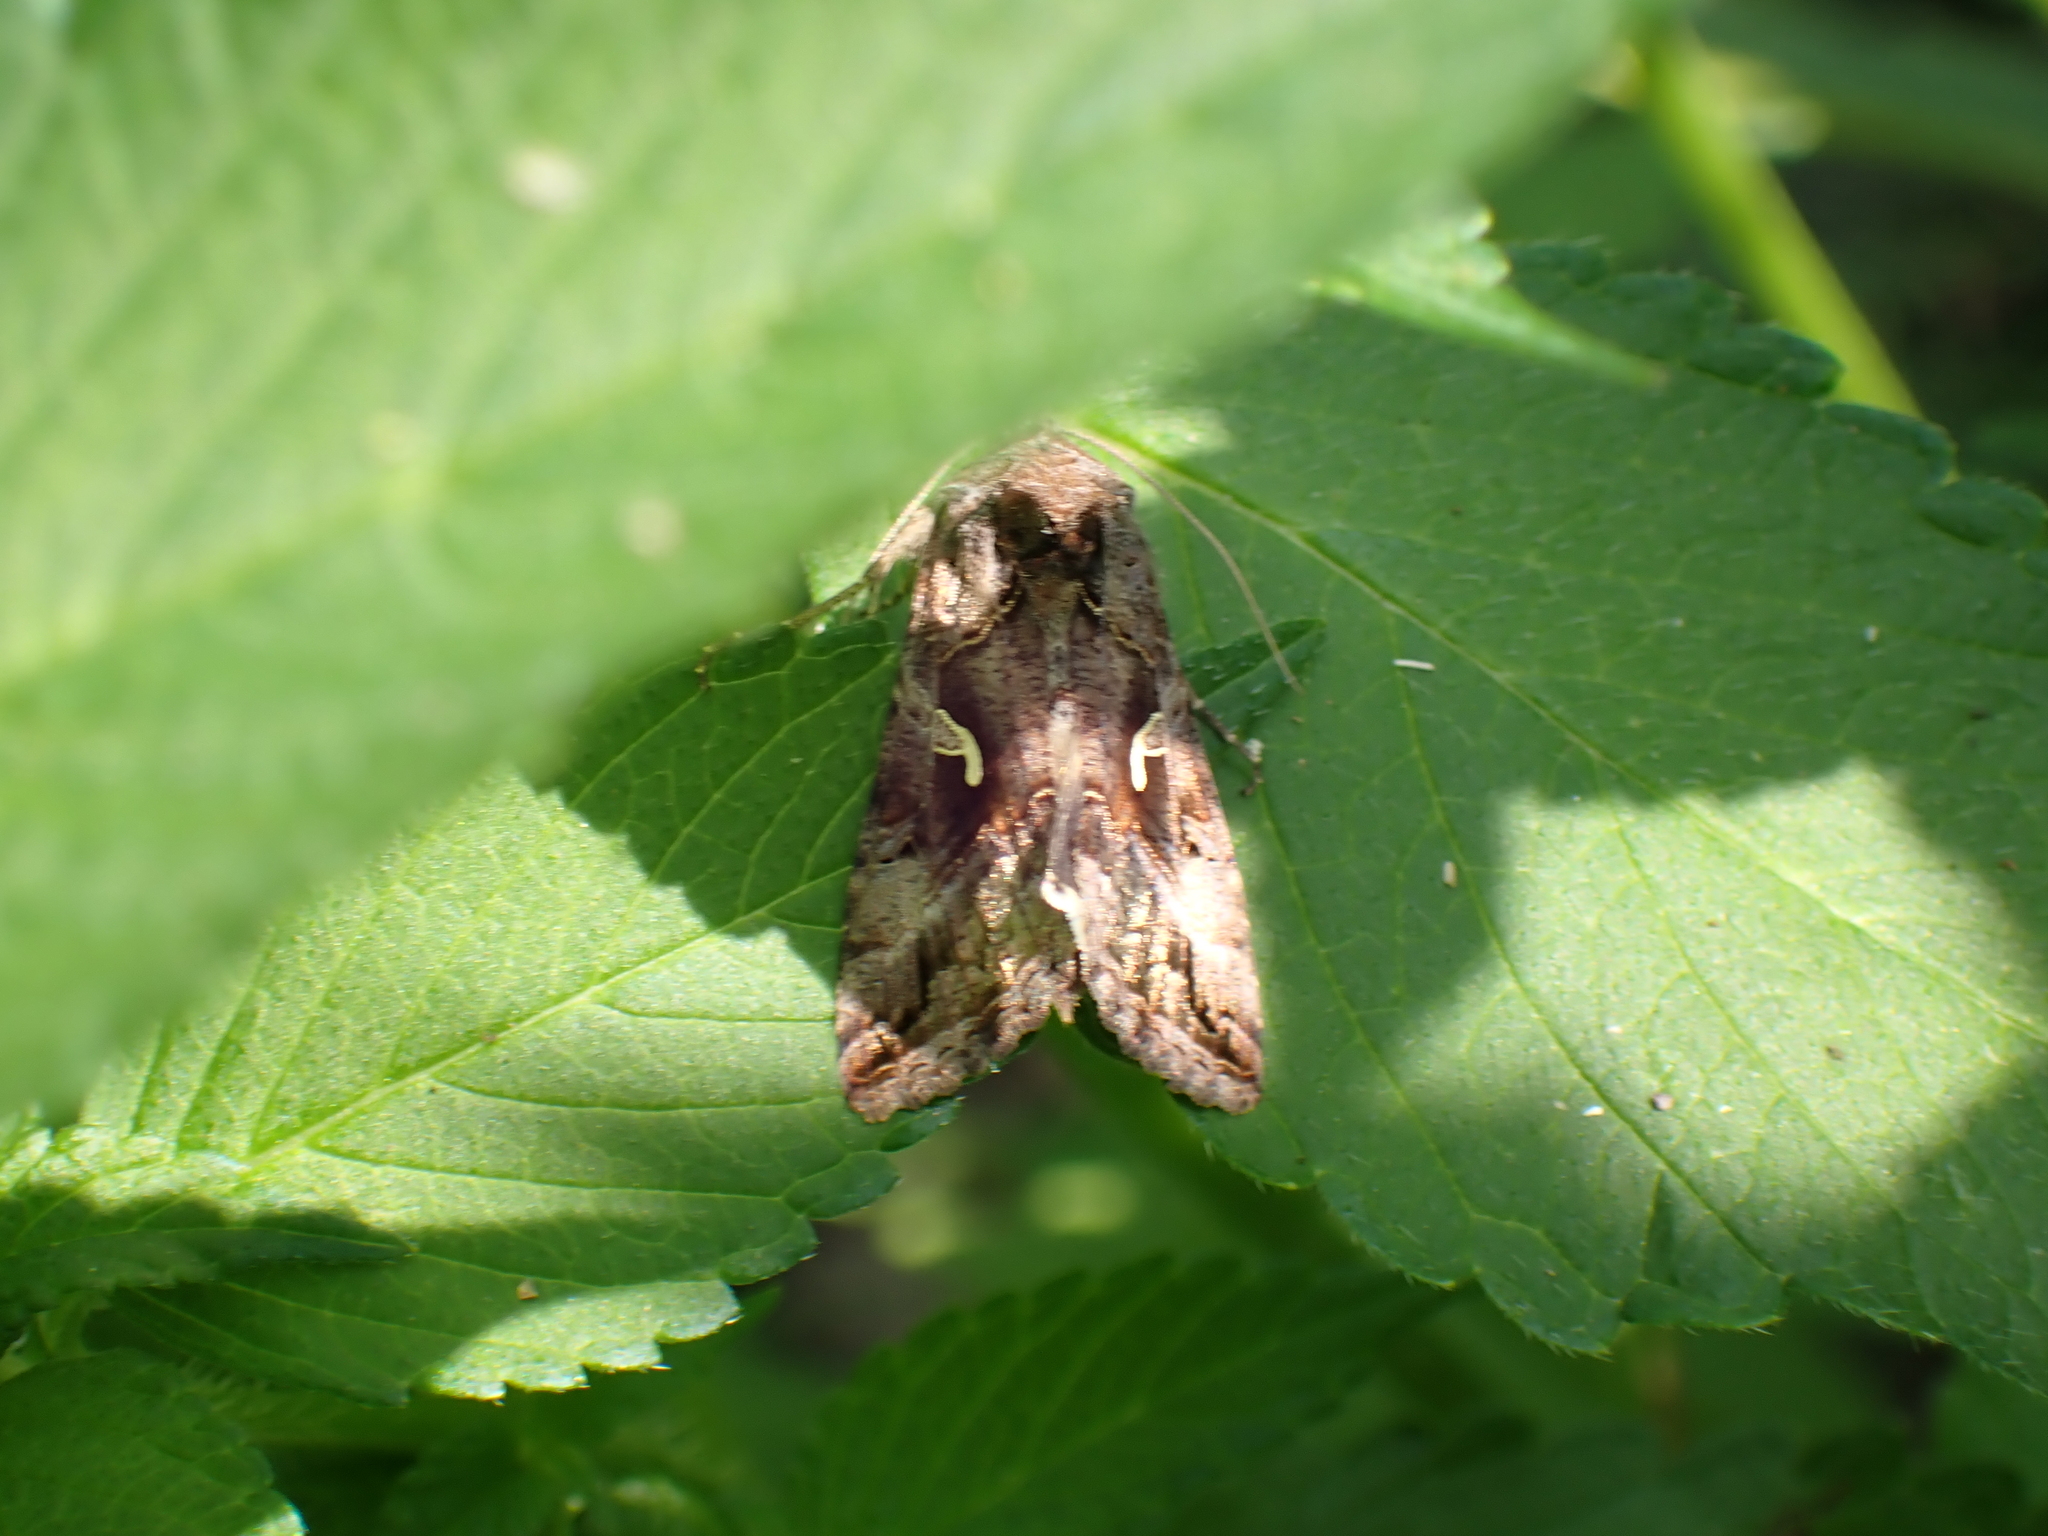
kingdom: Animalia
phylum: Arthropoda
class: Insecta
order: Lepidoptera
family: Noctuidae
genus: Autographa
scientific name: Autographa gamma
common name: Silver y
